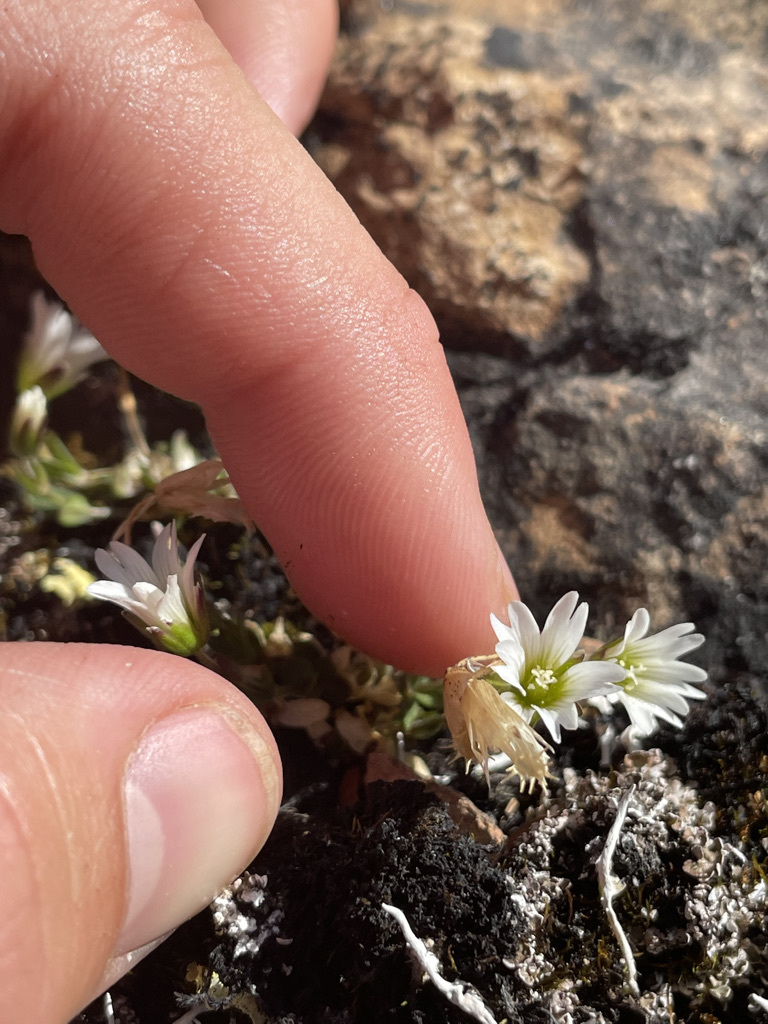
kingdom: Plantae
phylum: Tracheophyta
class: Magnoliopsida
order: Caryophyllales
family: Caryophyllaceae
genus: Cerastium
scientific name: Cerastium beeringianum
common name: Bering mouse-ear chickweed
